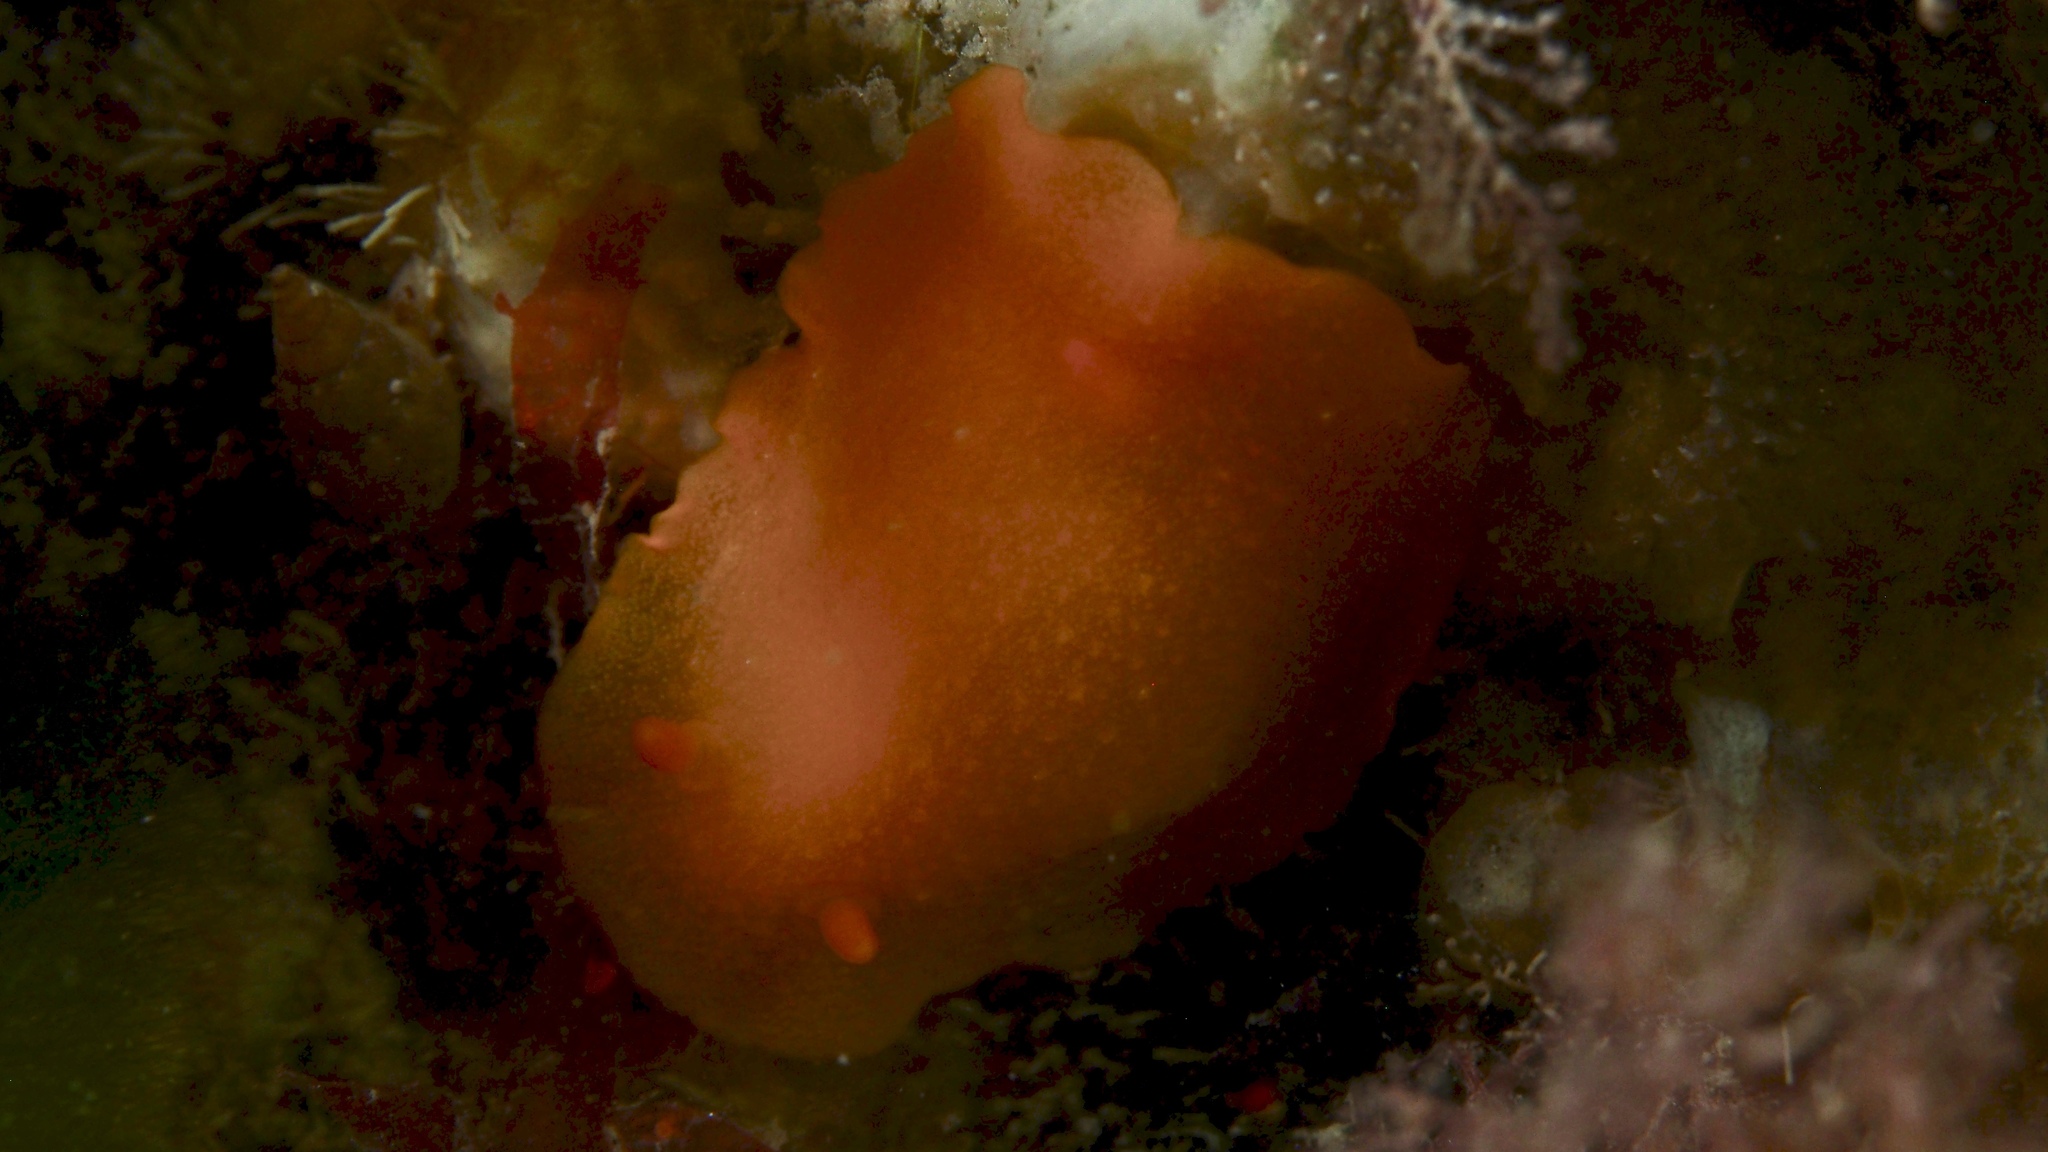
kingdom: Animalia
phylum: Mollusca
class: Gastropoda
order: Nudibranchia
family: Dendrodorididae
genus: Doriopsilla
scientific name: Doriopsilla carneola
